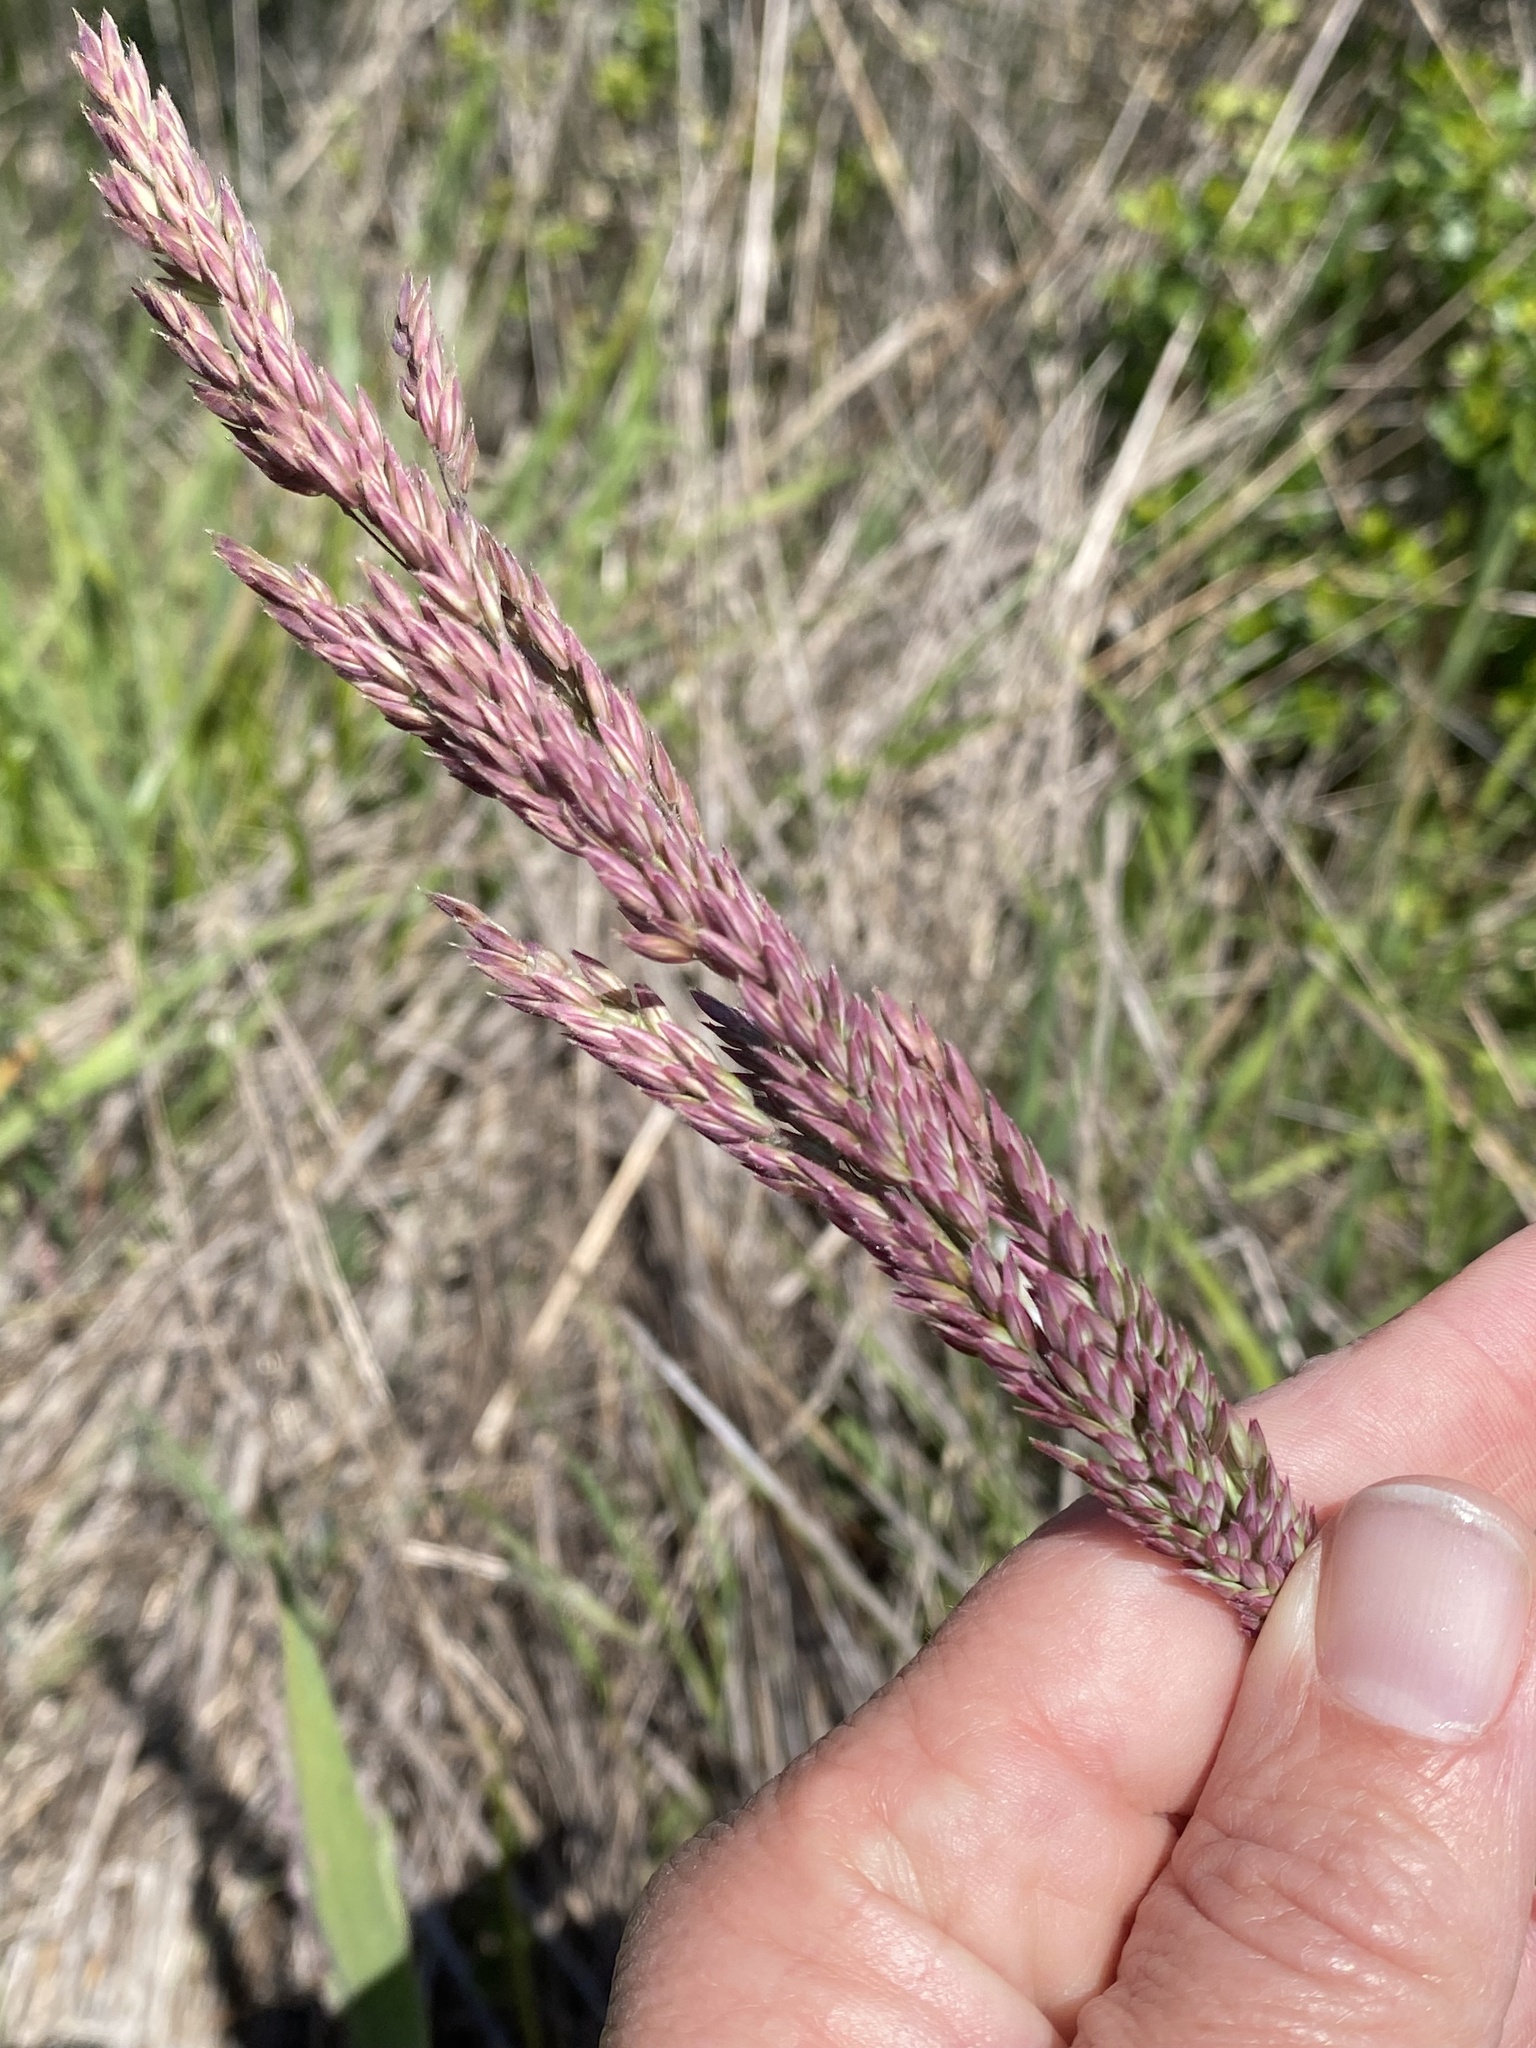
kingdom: Plantae
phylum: Tracheophyta
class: Liliopsida
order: Poales
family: Poaceae
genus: Holcus
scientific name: Holcus lanatus
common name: Yorkshire-fog
